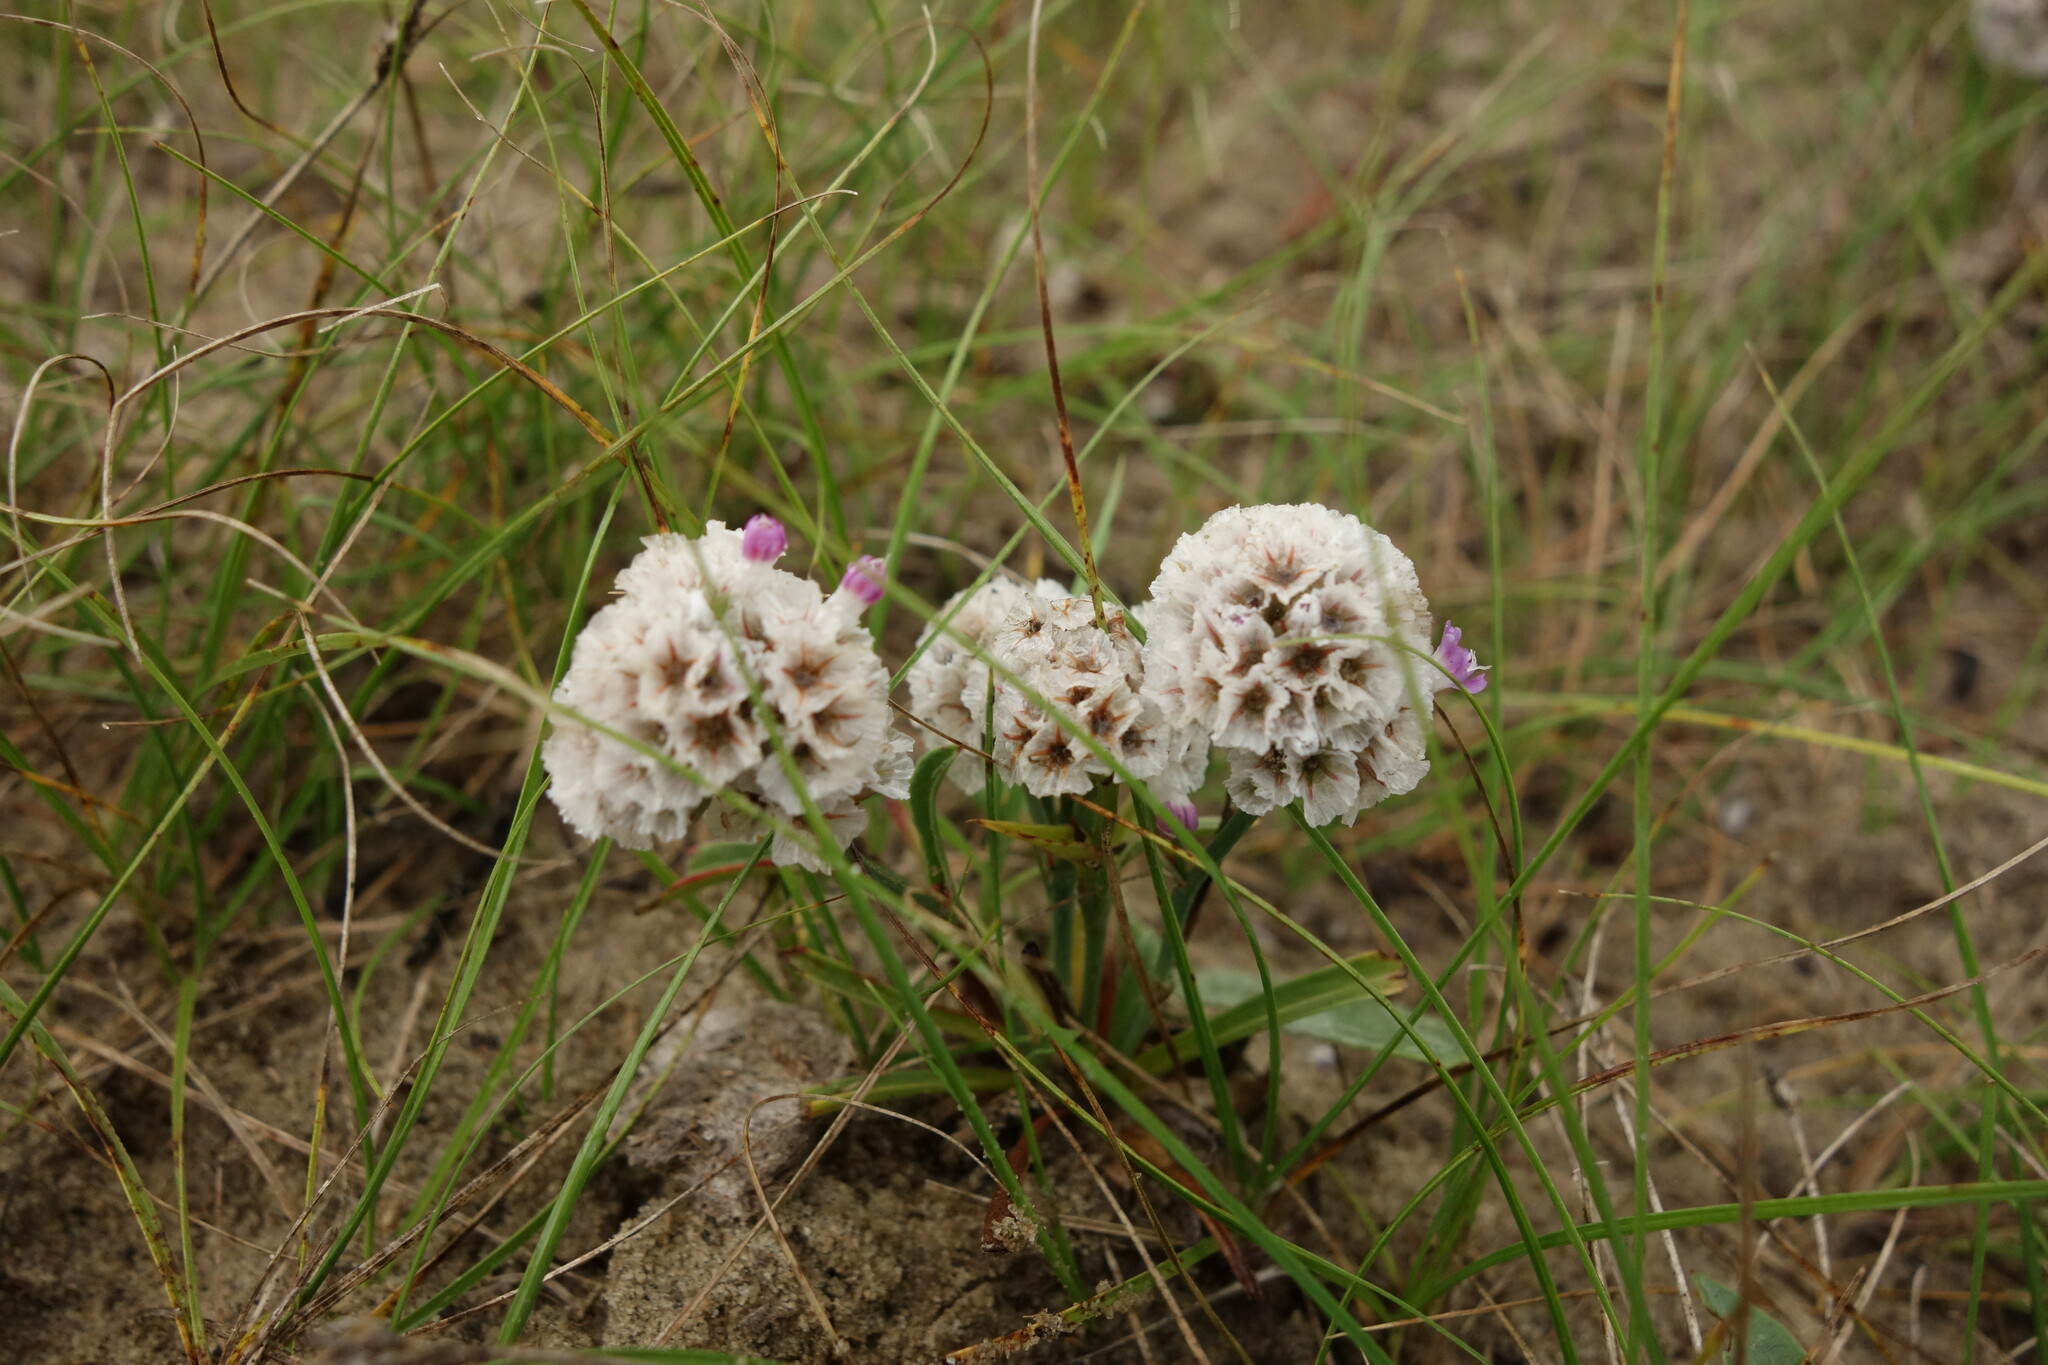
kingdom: Plantae
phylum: Tracheophyta
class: Magnoliopsida
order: Caryophyllales
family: Plumbaginaceae
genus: Limonium
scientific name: Limonium flexuosum
